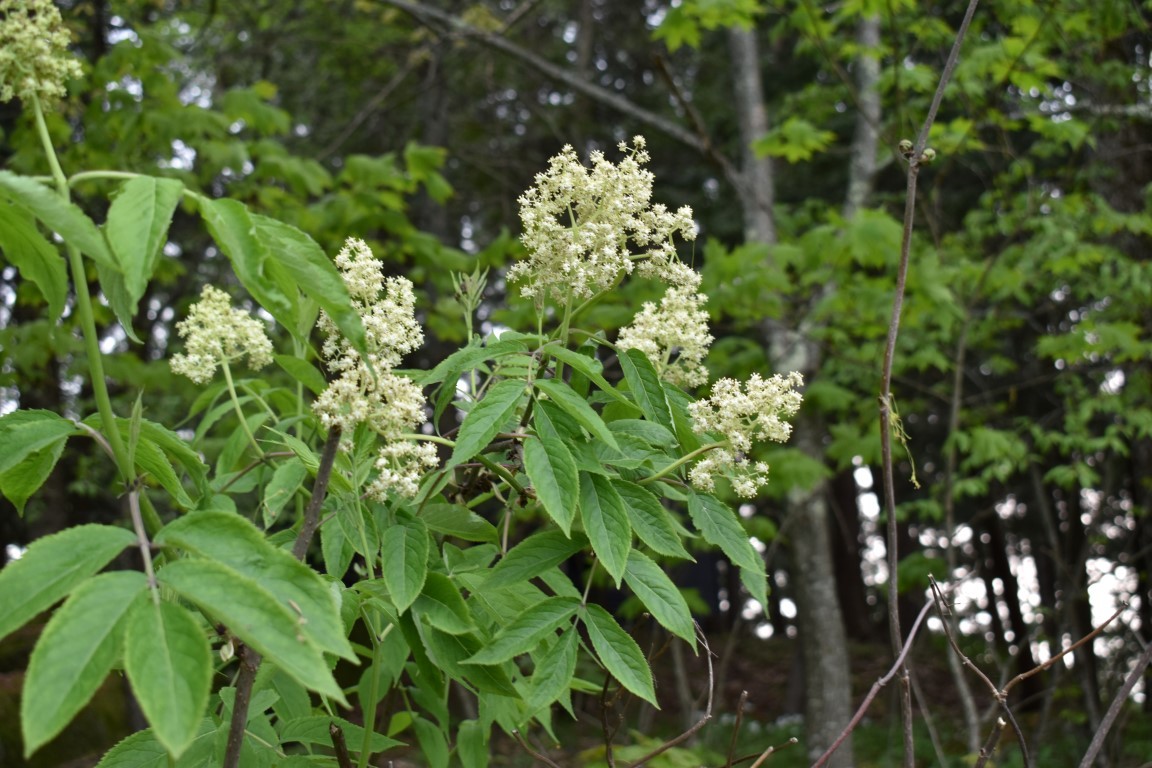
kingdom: Plantae
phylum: Tracheophyta
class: Magnoliopsida
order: Dipsacales
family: Viburnaceae
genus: Sambucus
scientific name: Sambucus racemosa
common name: Red-berried elder
